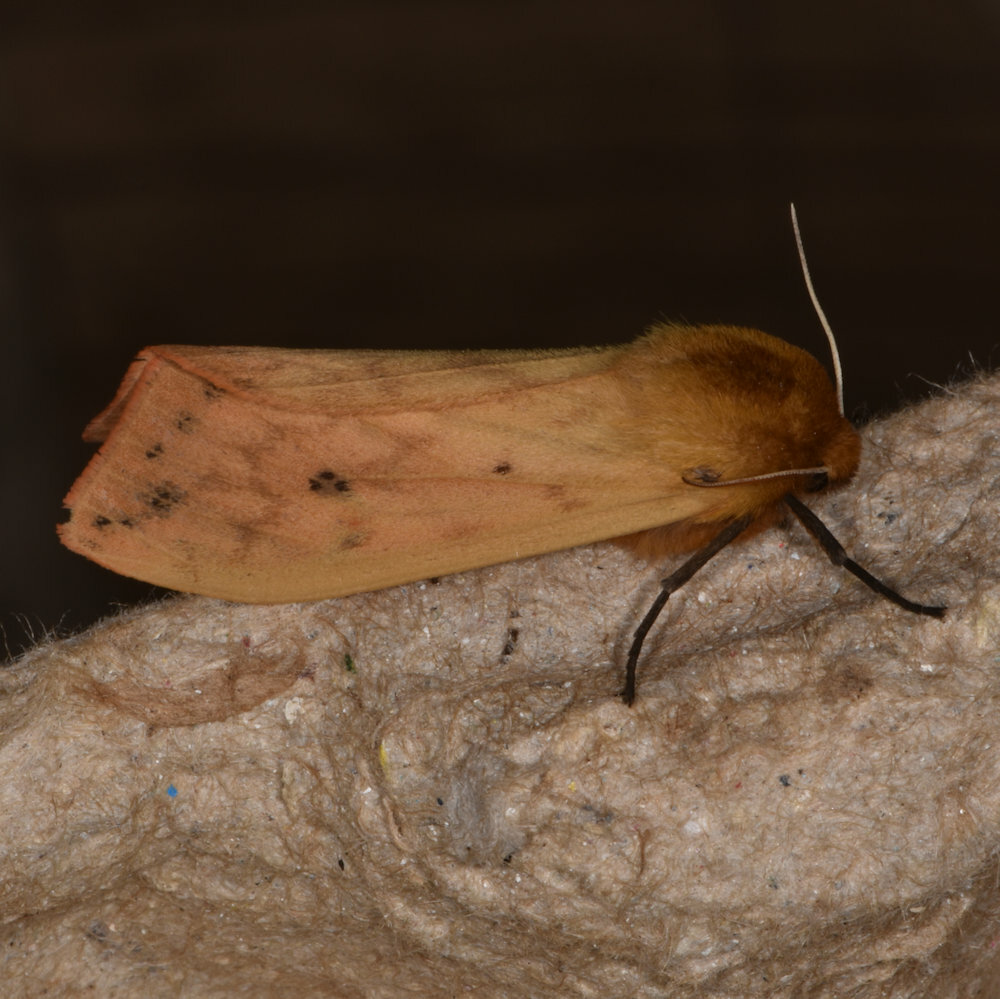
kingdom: Animalia
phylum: Arthropoda
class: Insecta
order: Lepidoptera
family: Erebidae
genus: Pyrrharctia
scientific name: Pyrrharctia isabella
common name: Isabella tiger moth
